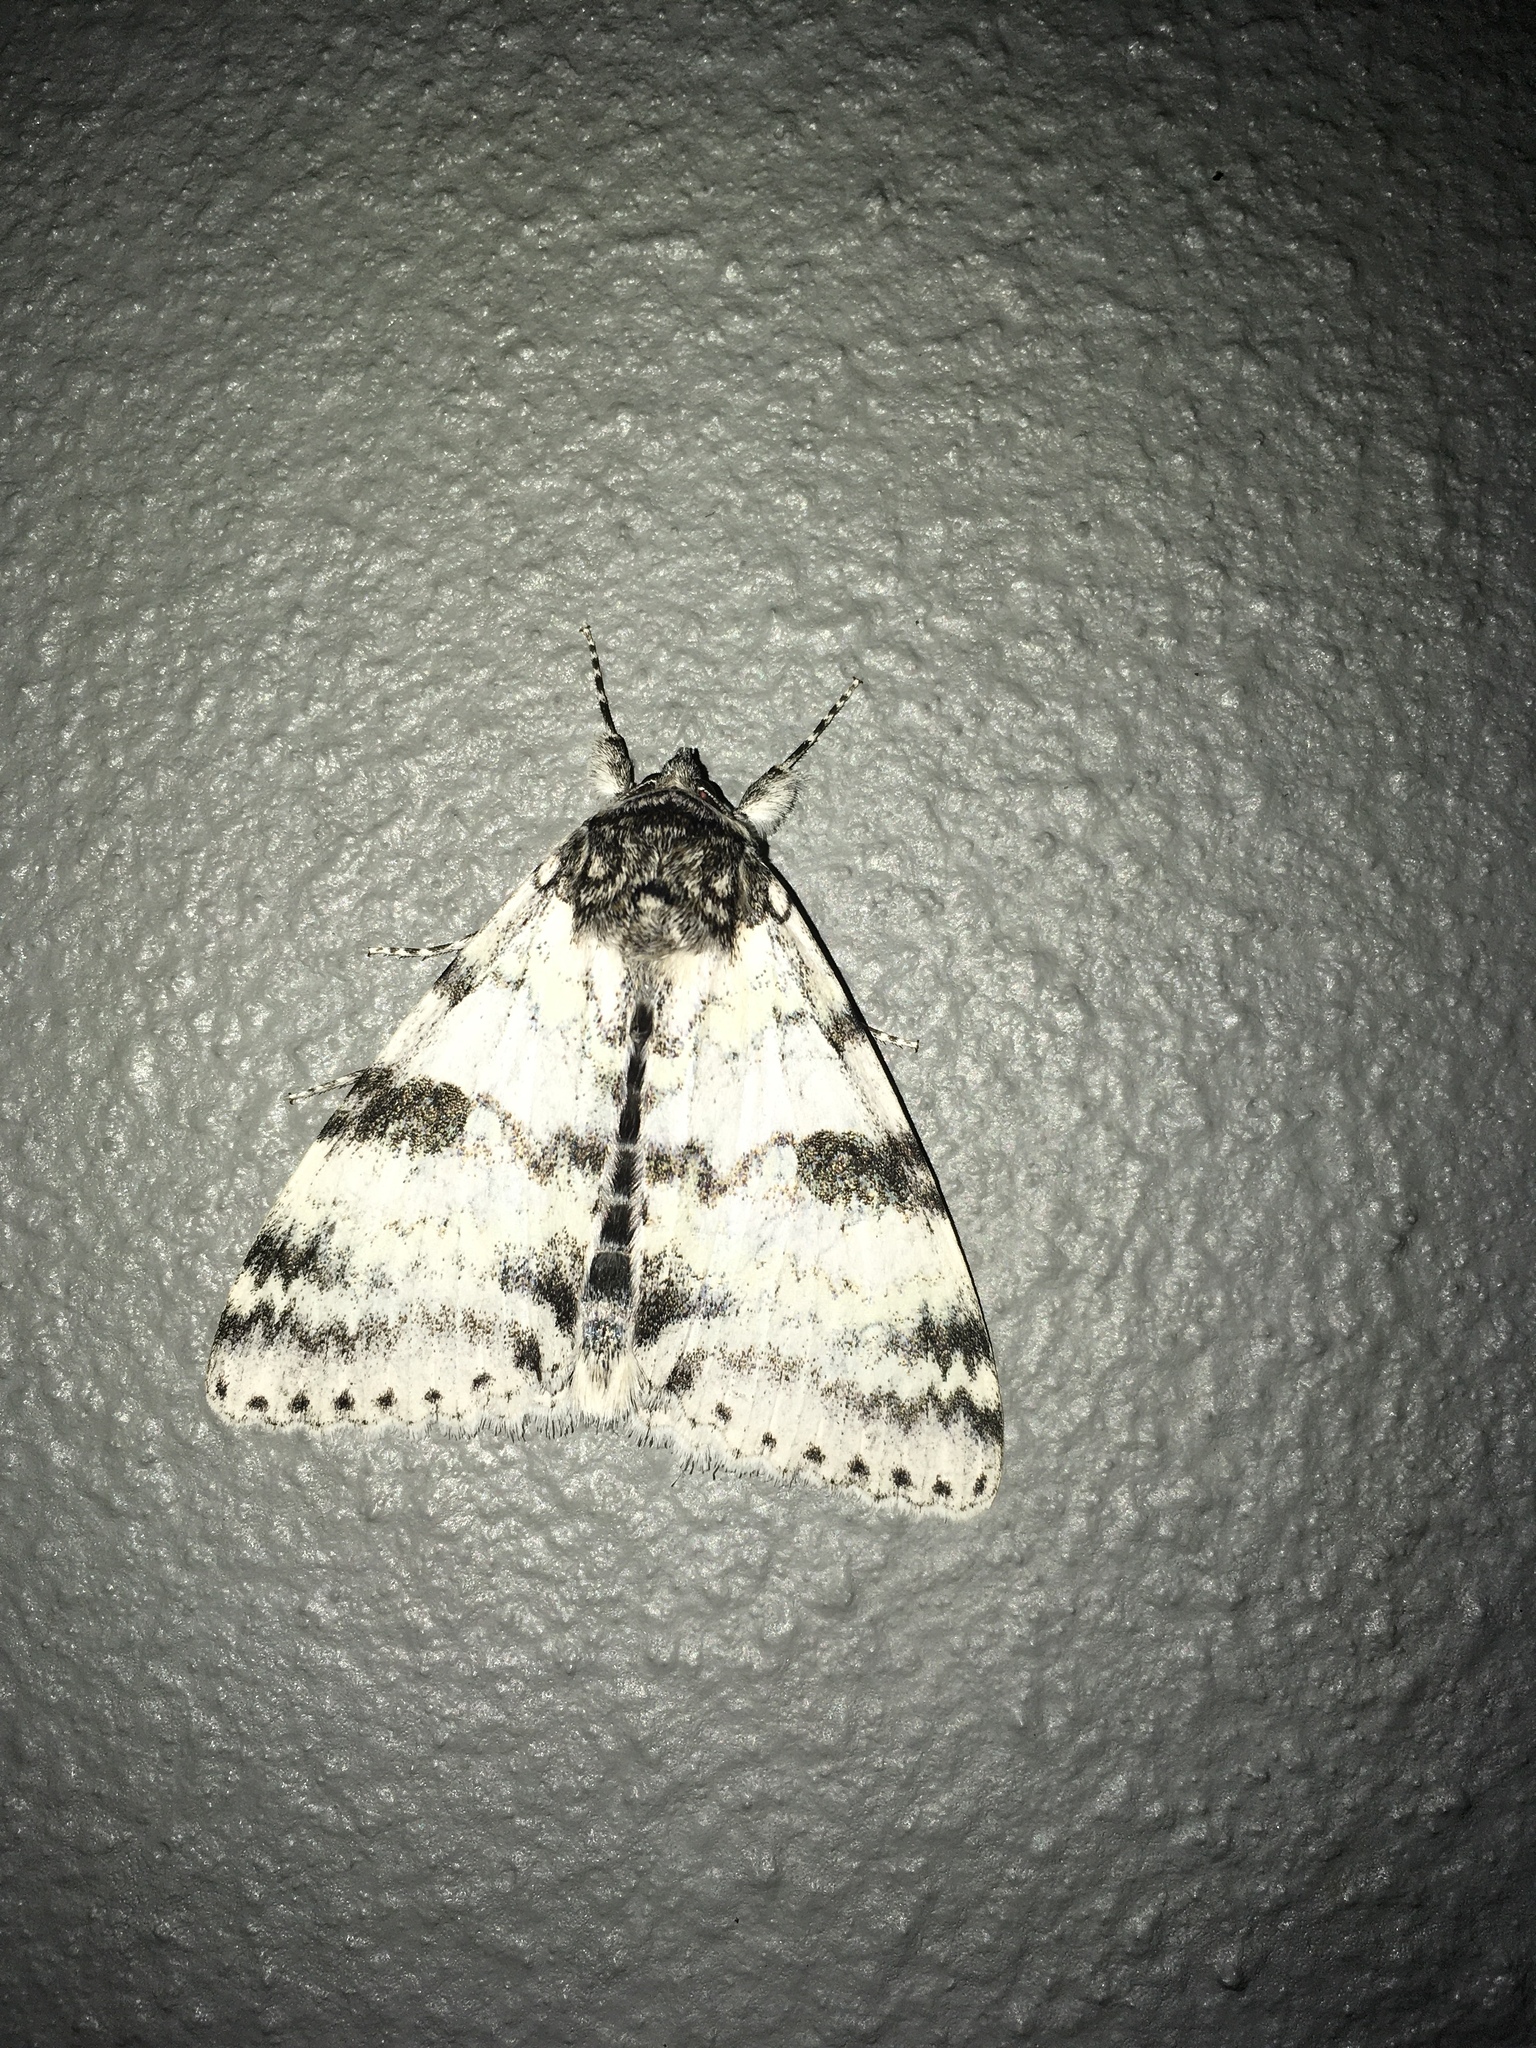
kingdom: Animalia
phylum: Arthropoda
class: Insecta
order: Lepidoptera
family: Erebidae
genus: Catocala
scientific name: Catocala relicta
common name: White underwing
